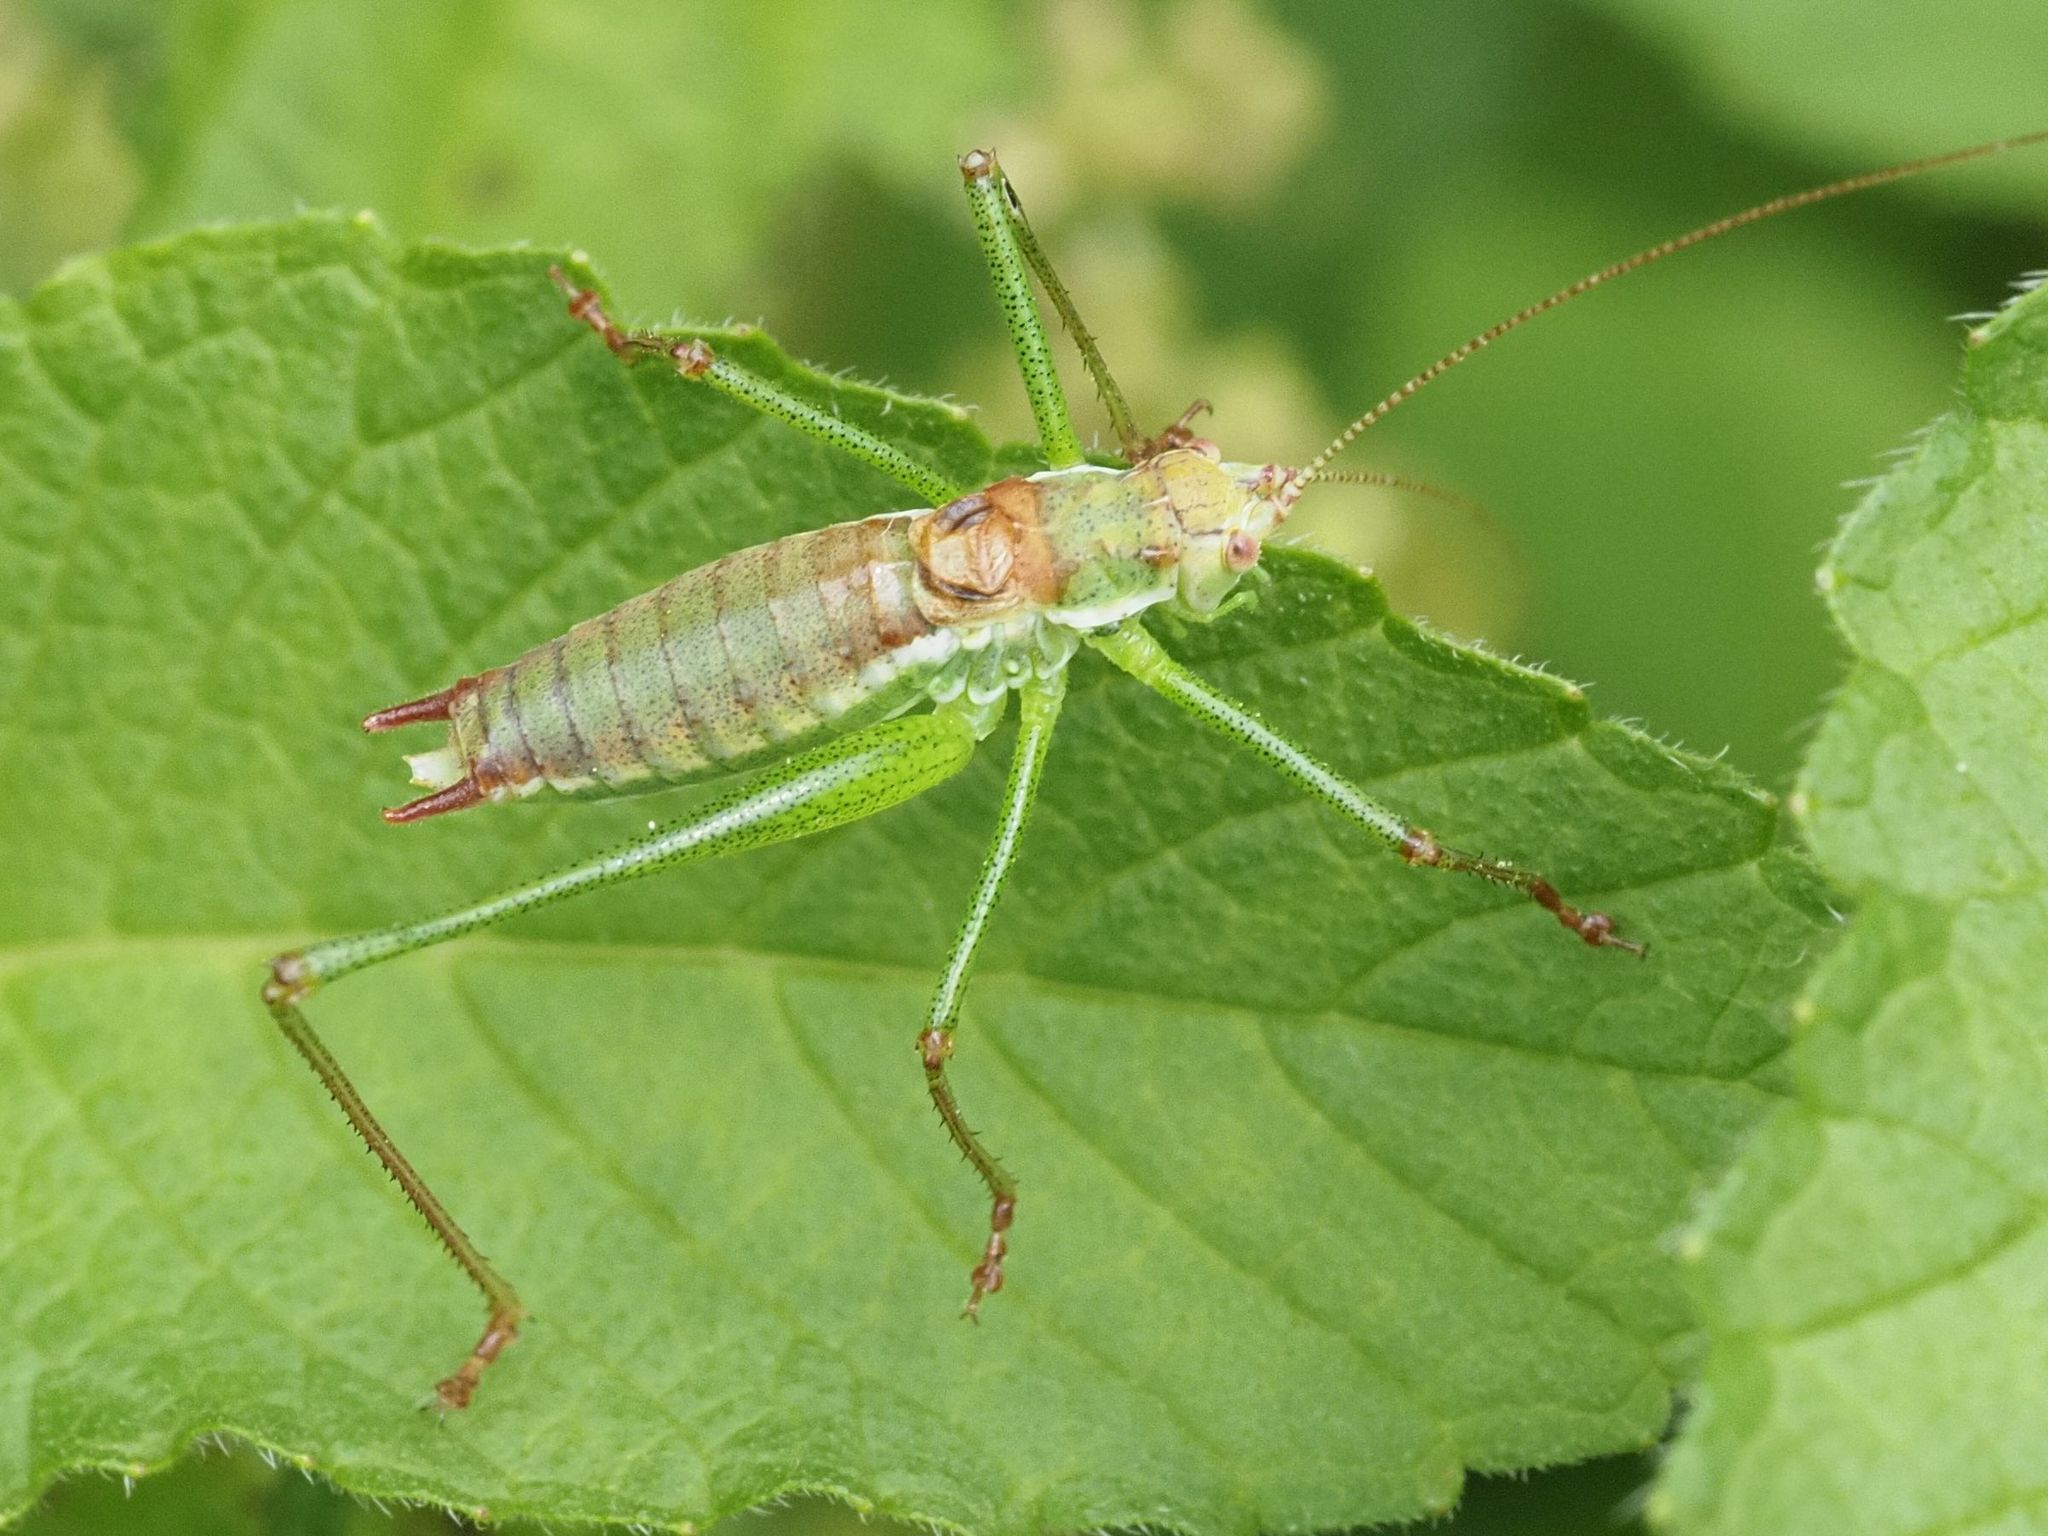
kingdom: Animalia
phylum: Arthropoda
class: Insecta
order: Orthoptera
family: Tettigoniidae
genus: Leptophyes
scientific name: Leptophyes albovittata
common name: Striped bush-cricket
